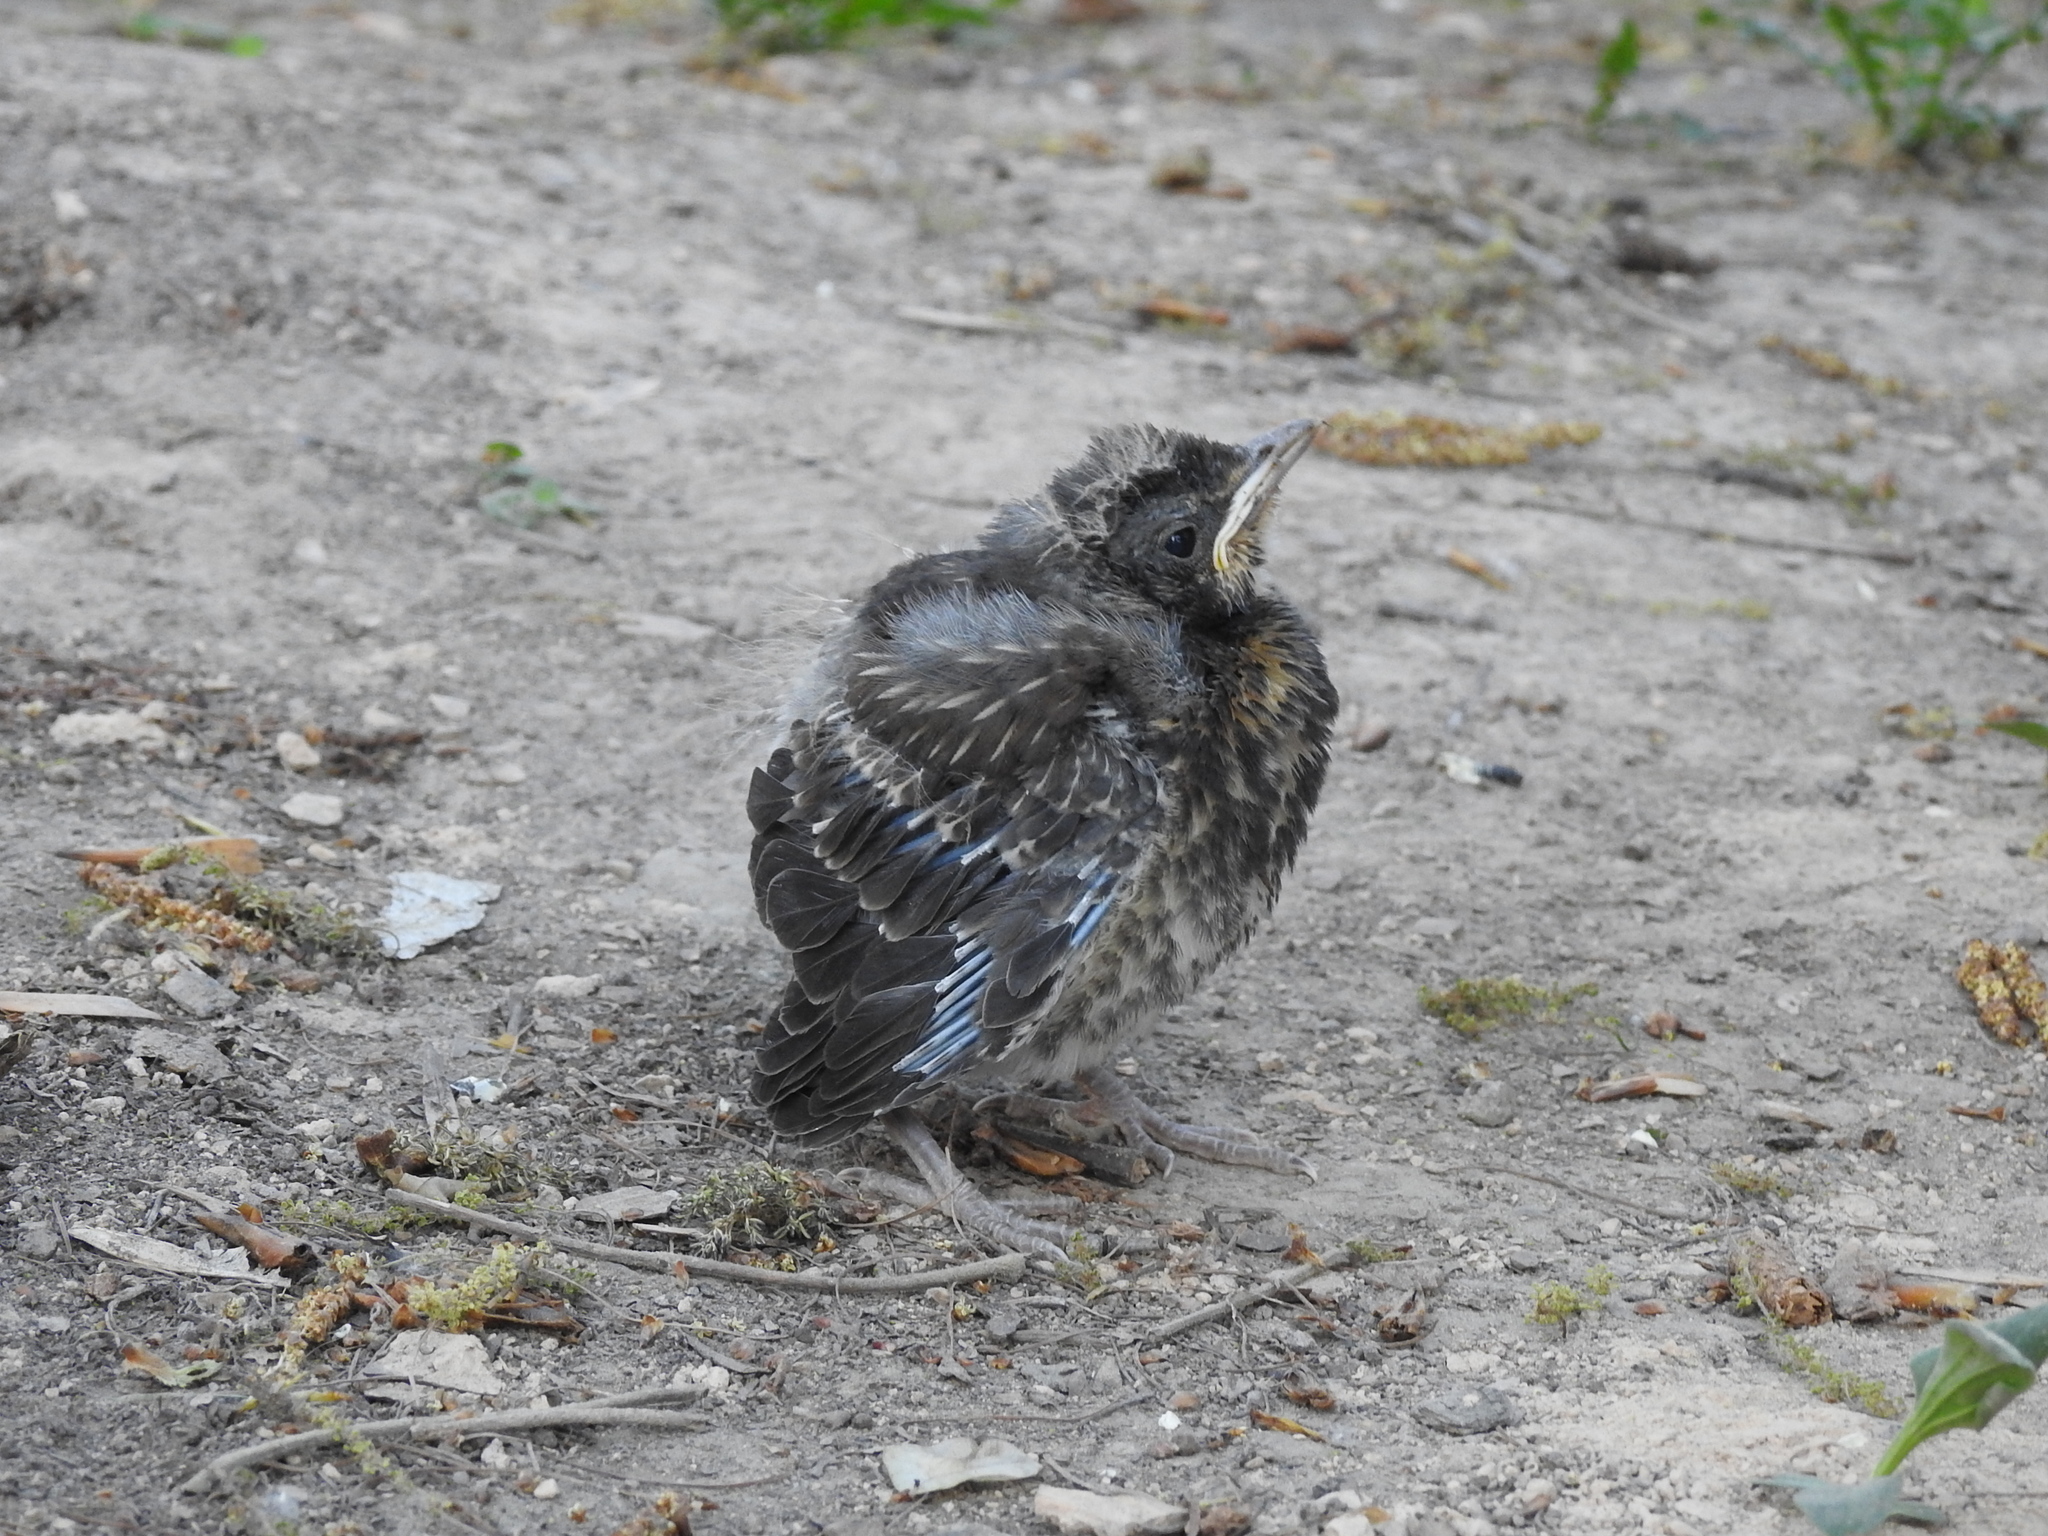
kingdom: Animalia
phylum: Chordata
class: Aves
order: Passeriformes
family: Turdidae
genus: Turdus
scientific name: Turdus pilaris
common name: Fieldfare
